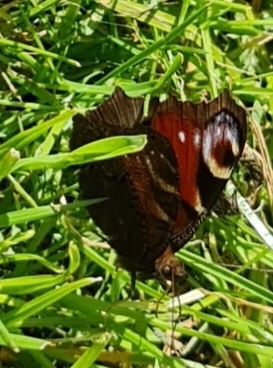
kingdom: Animalia
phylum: Arthropoda
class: Insecta
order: Lepidoptera
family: Nymphalidae
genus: Aglais
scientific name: Aglais io
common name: Peacock
